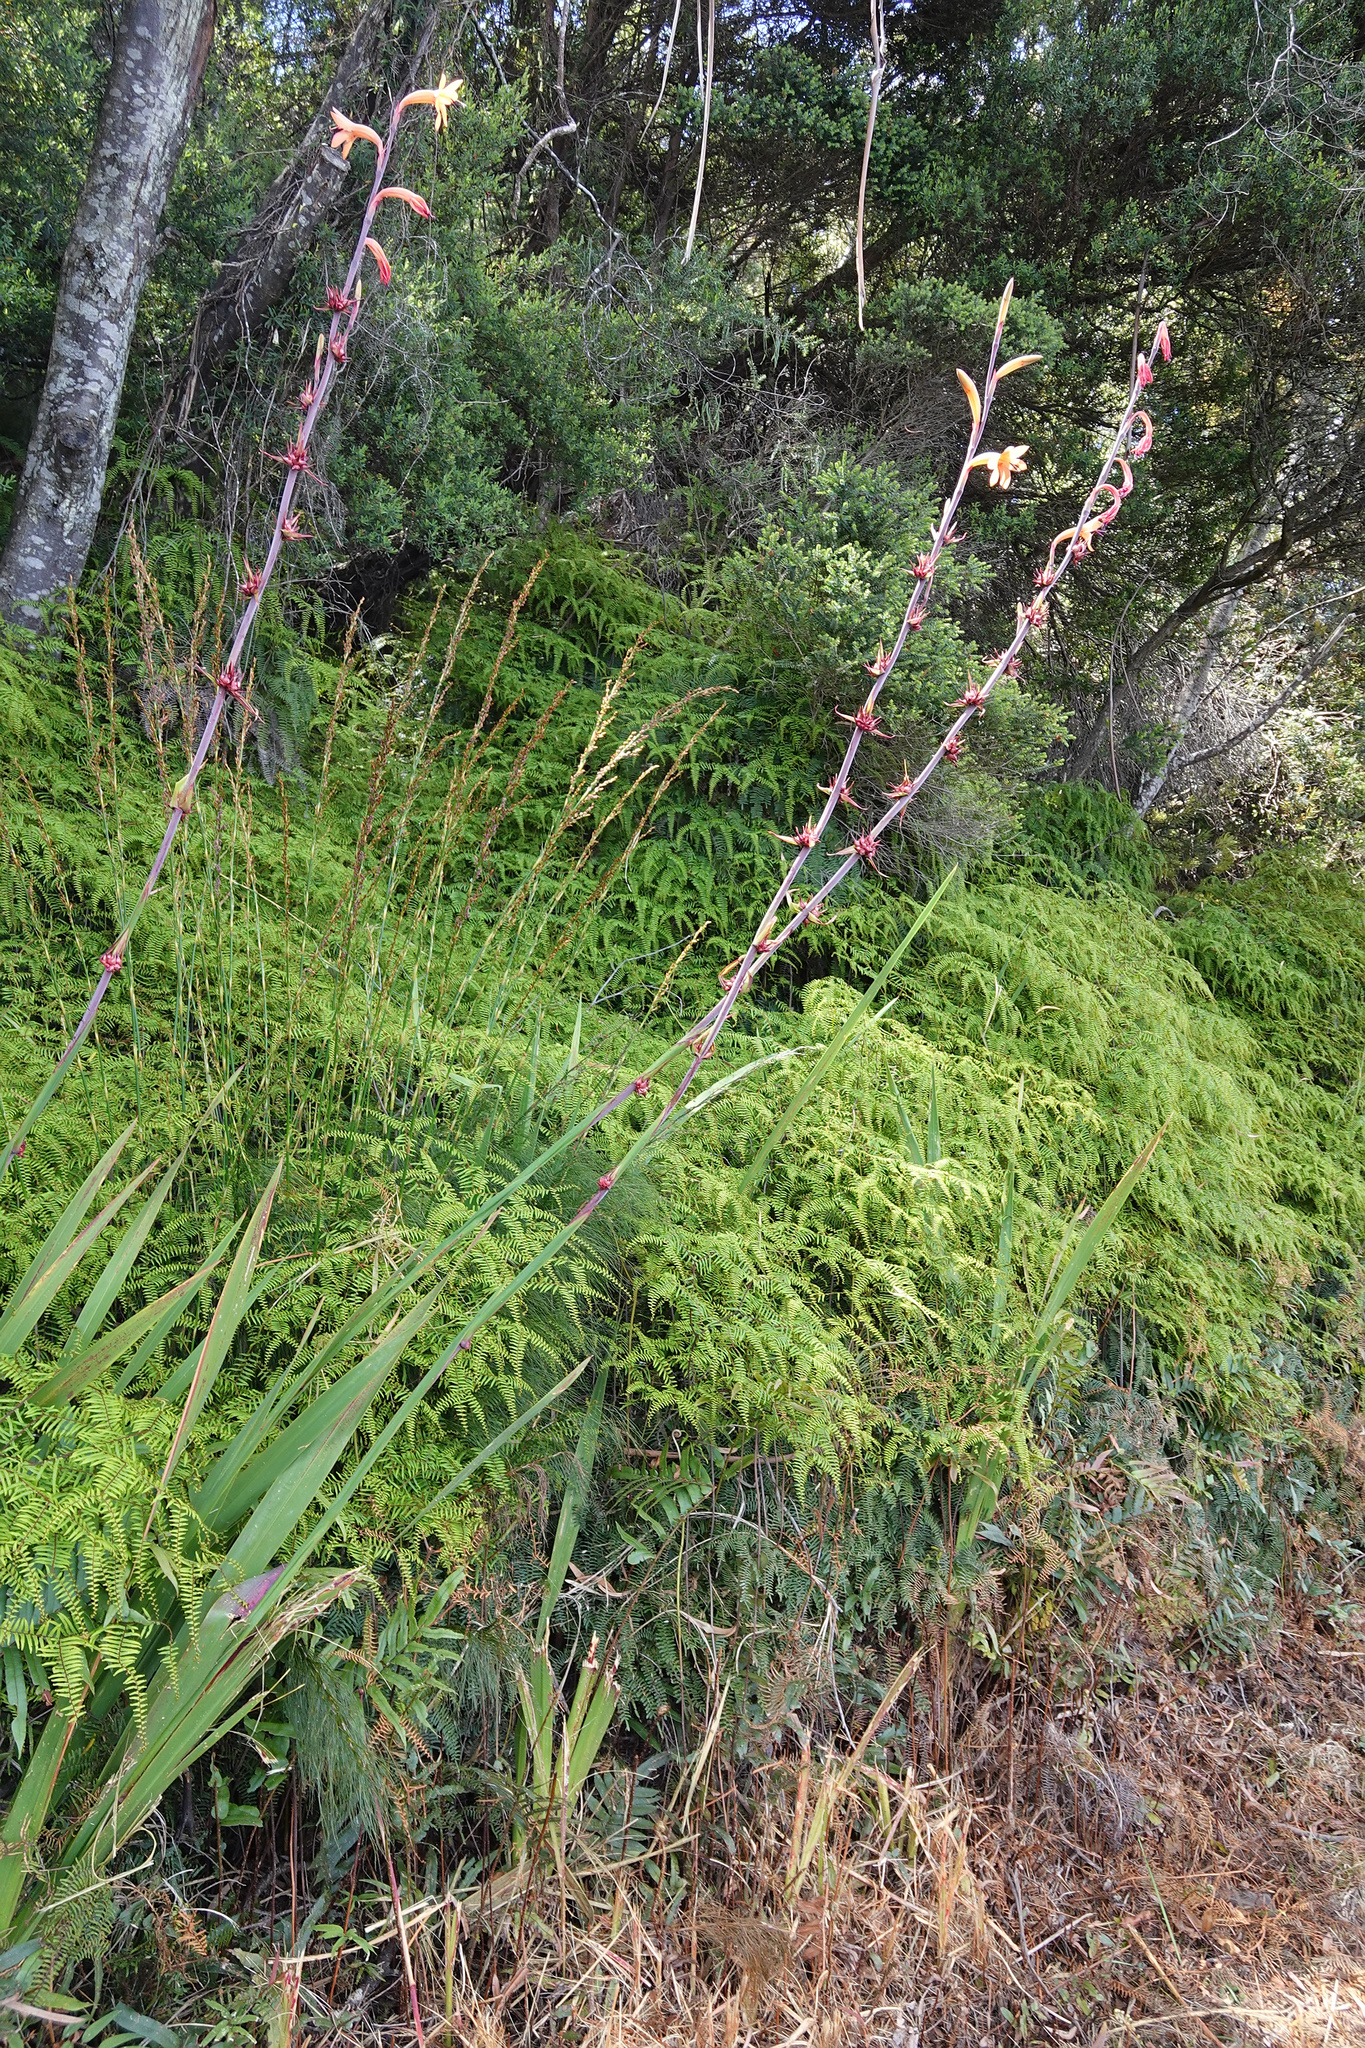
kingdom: Plantae
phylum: Tracheophyta
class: Liliopsida
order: Asparagales
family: Iridaceae
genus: Watsonia
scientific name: Watsonia meriana
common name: Bulbil bugle-lily
